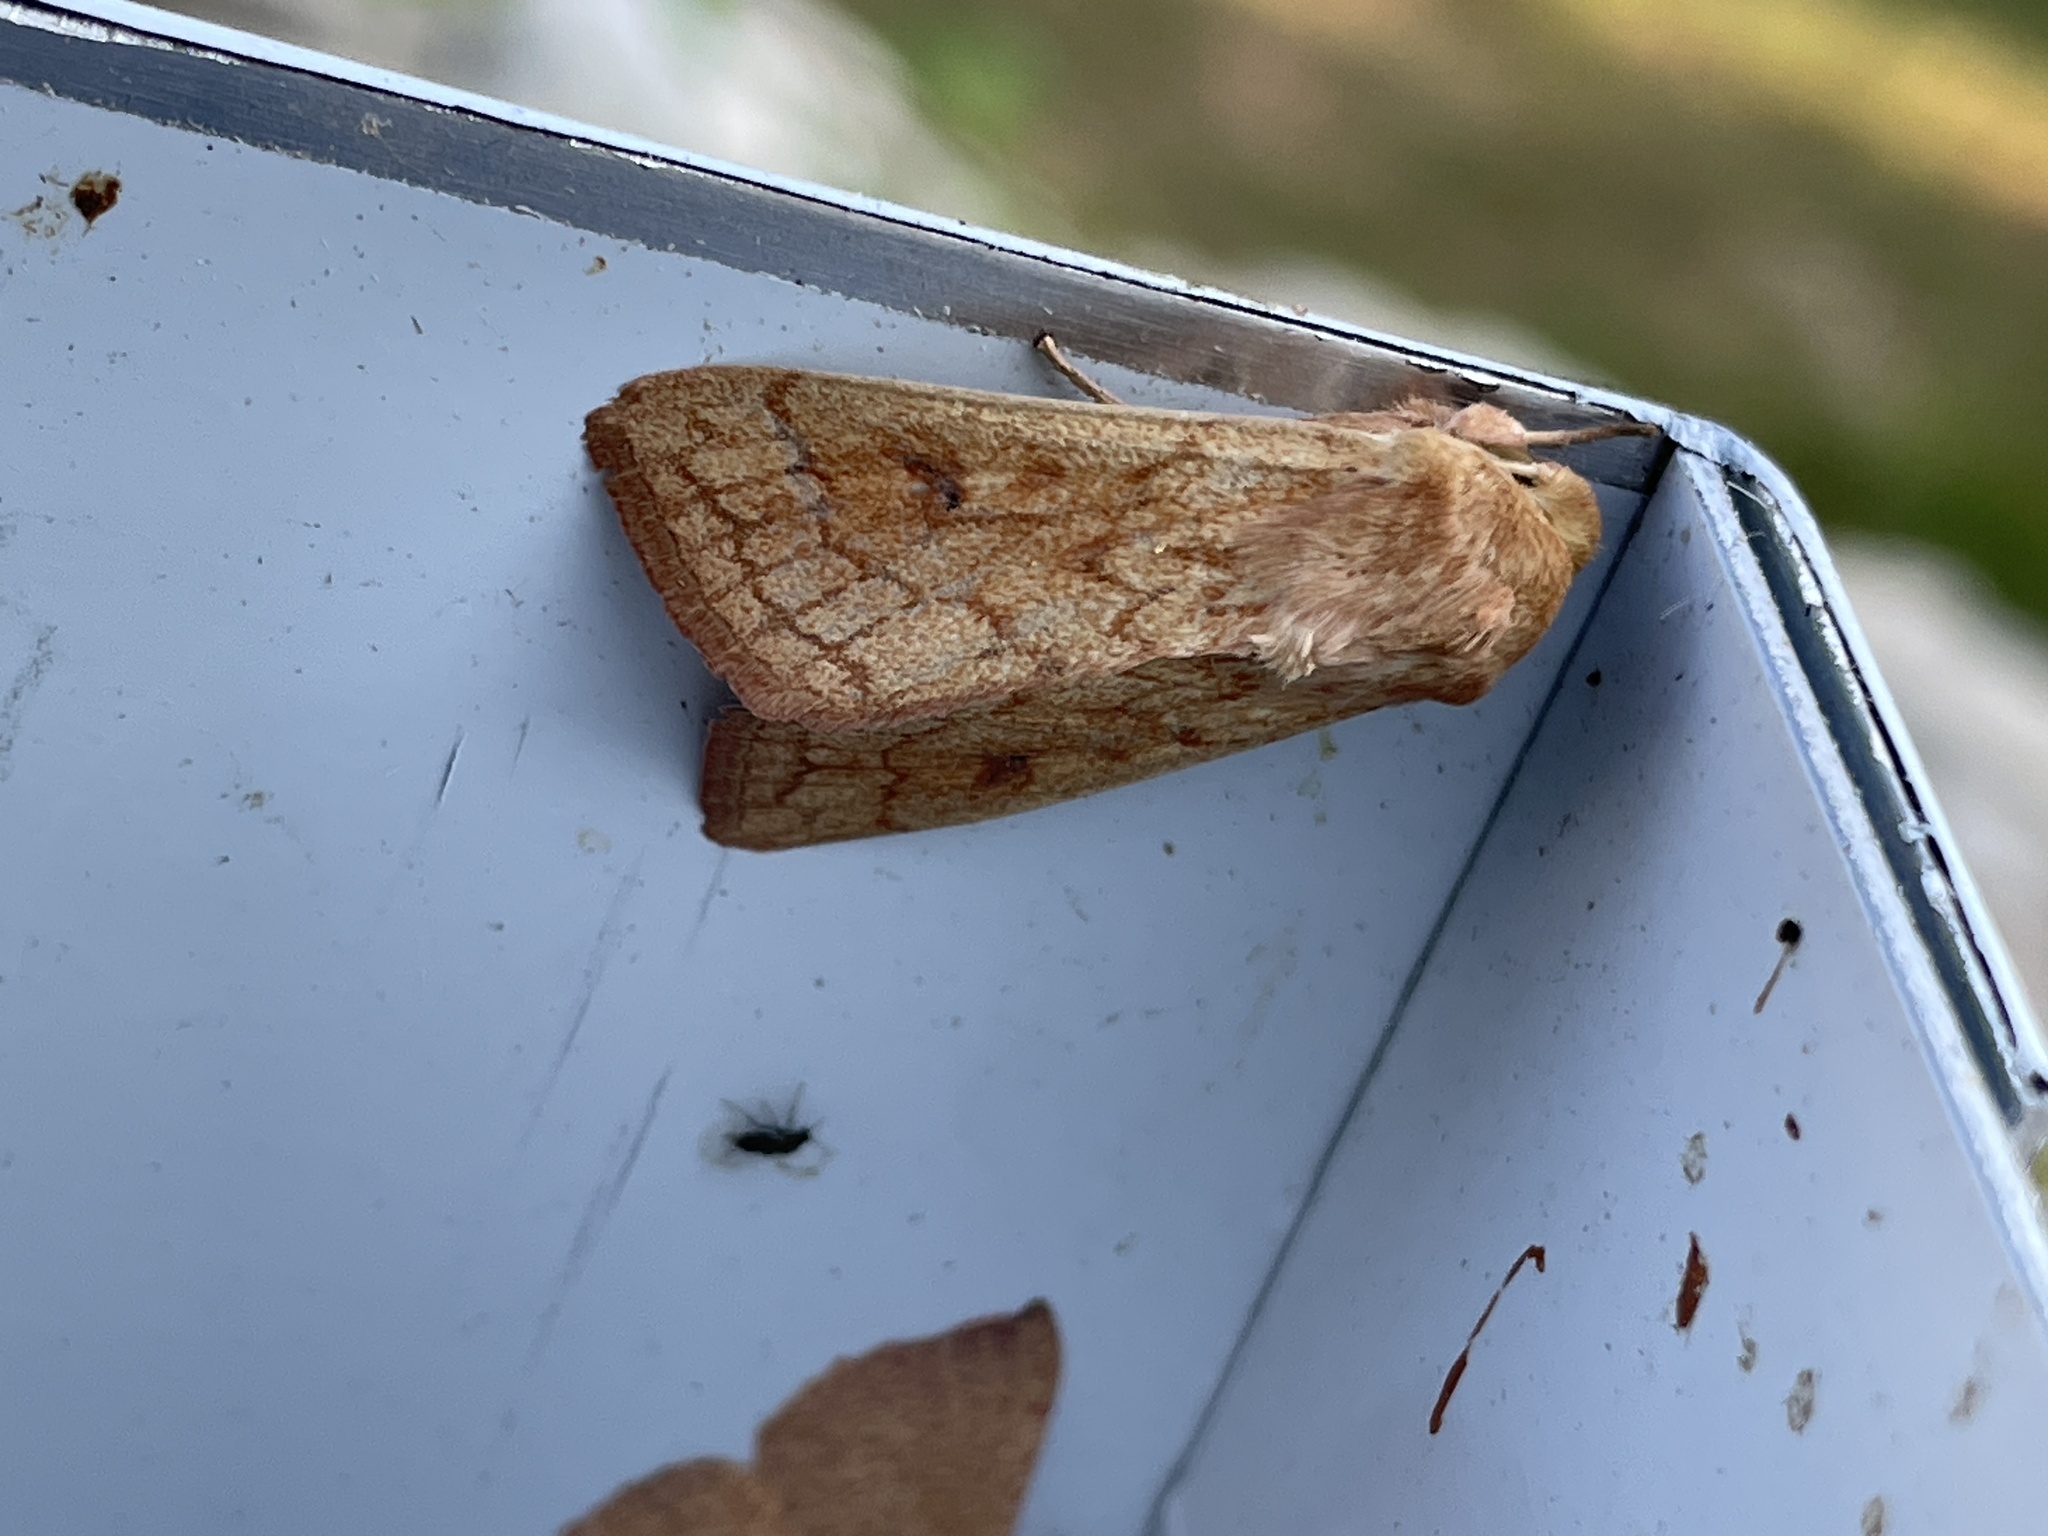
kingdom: Animalia
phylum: Arthropoda
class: Insecta
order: Lepidoptera
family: Noctuidae
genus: Mythimna
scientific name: Mythimna vitellina
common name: Delicate
